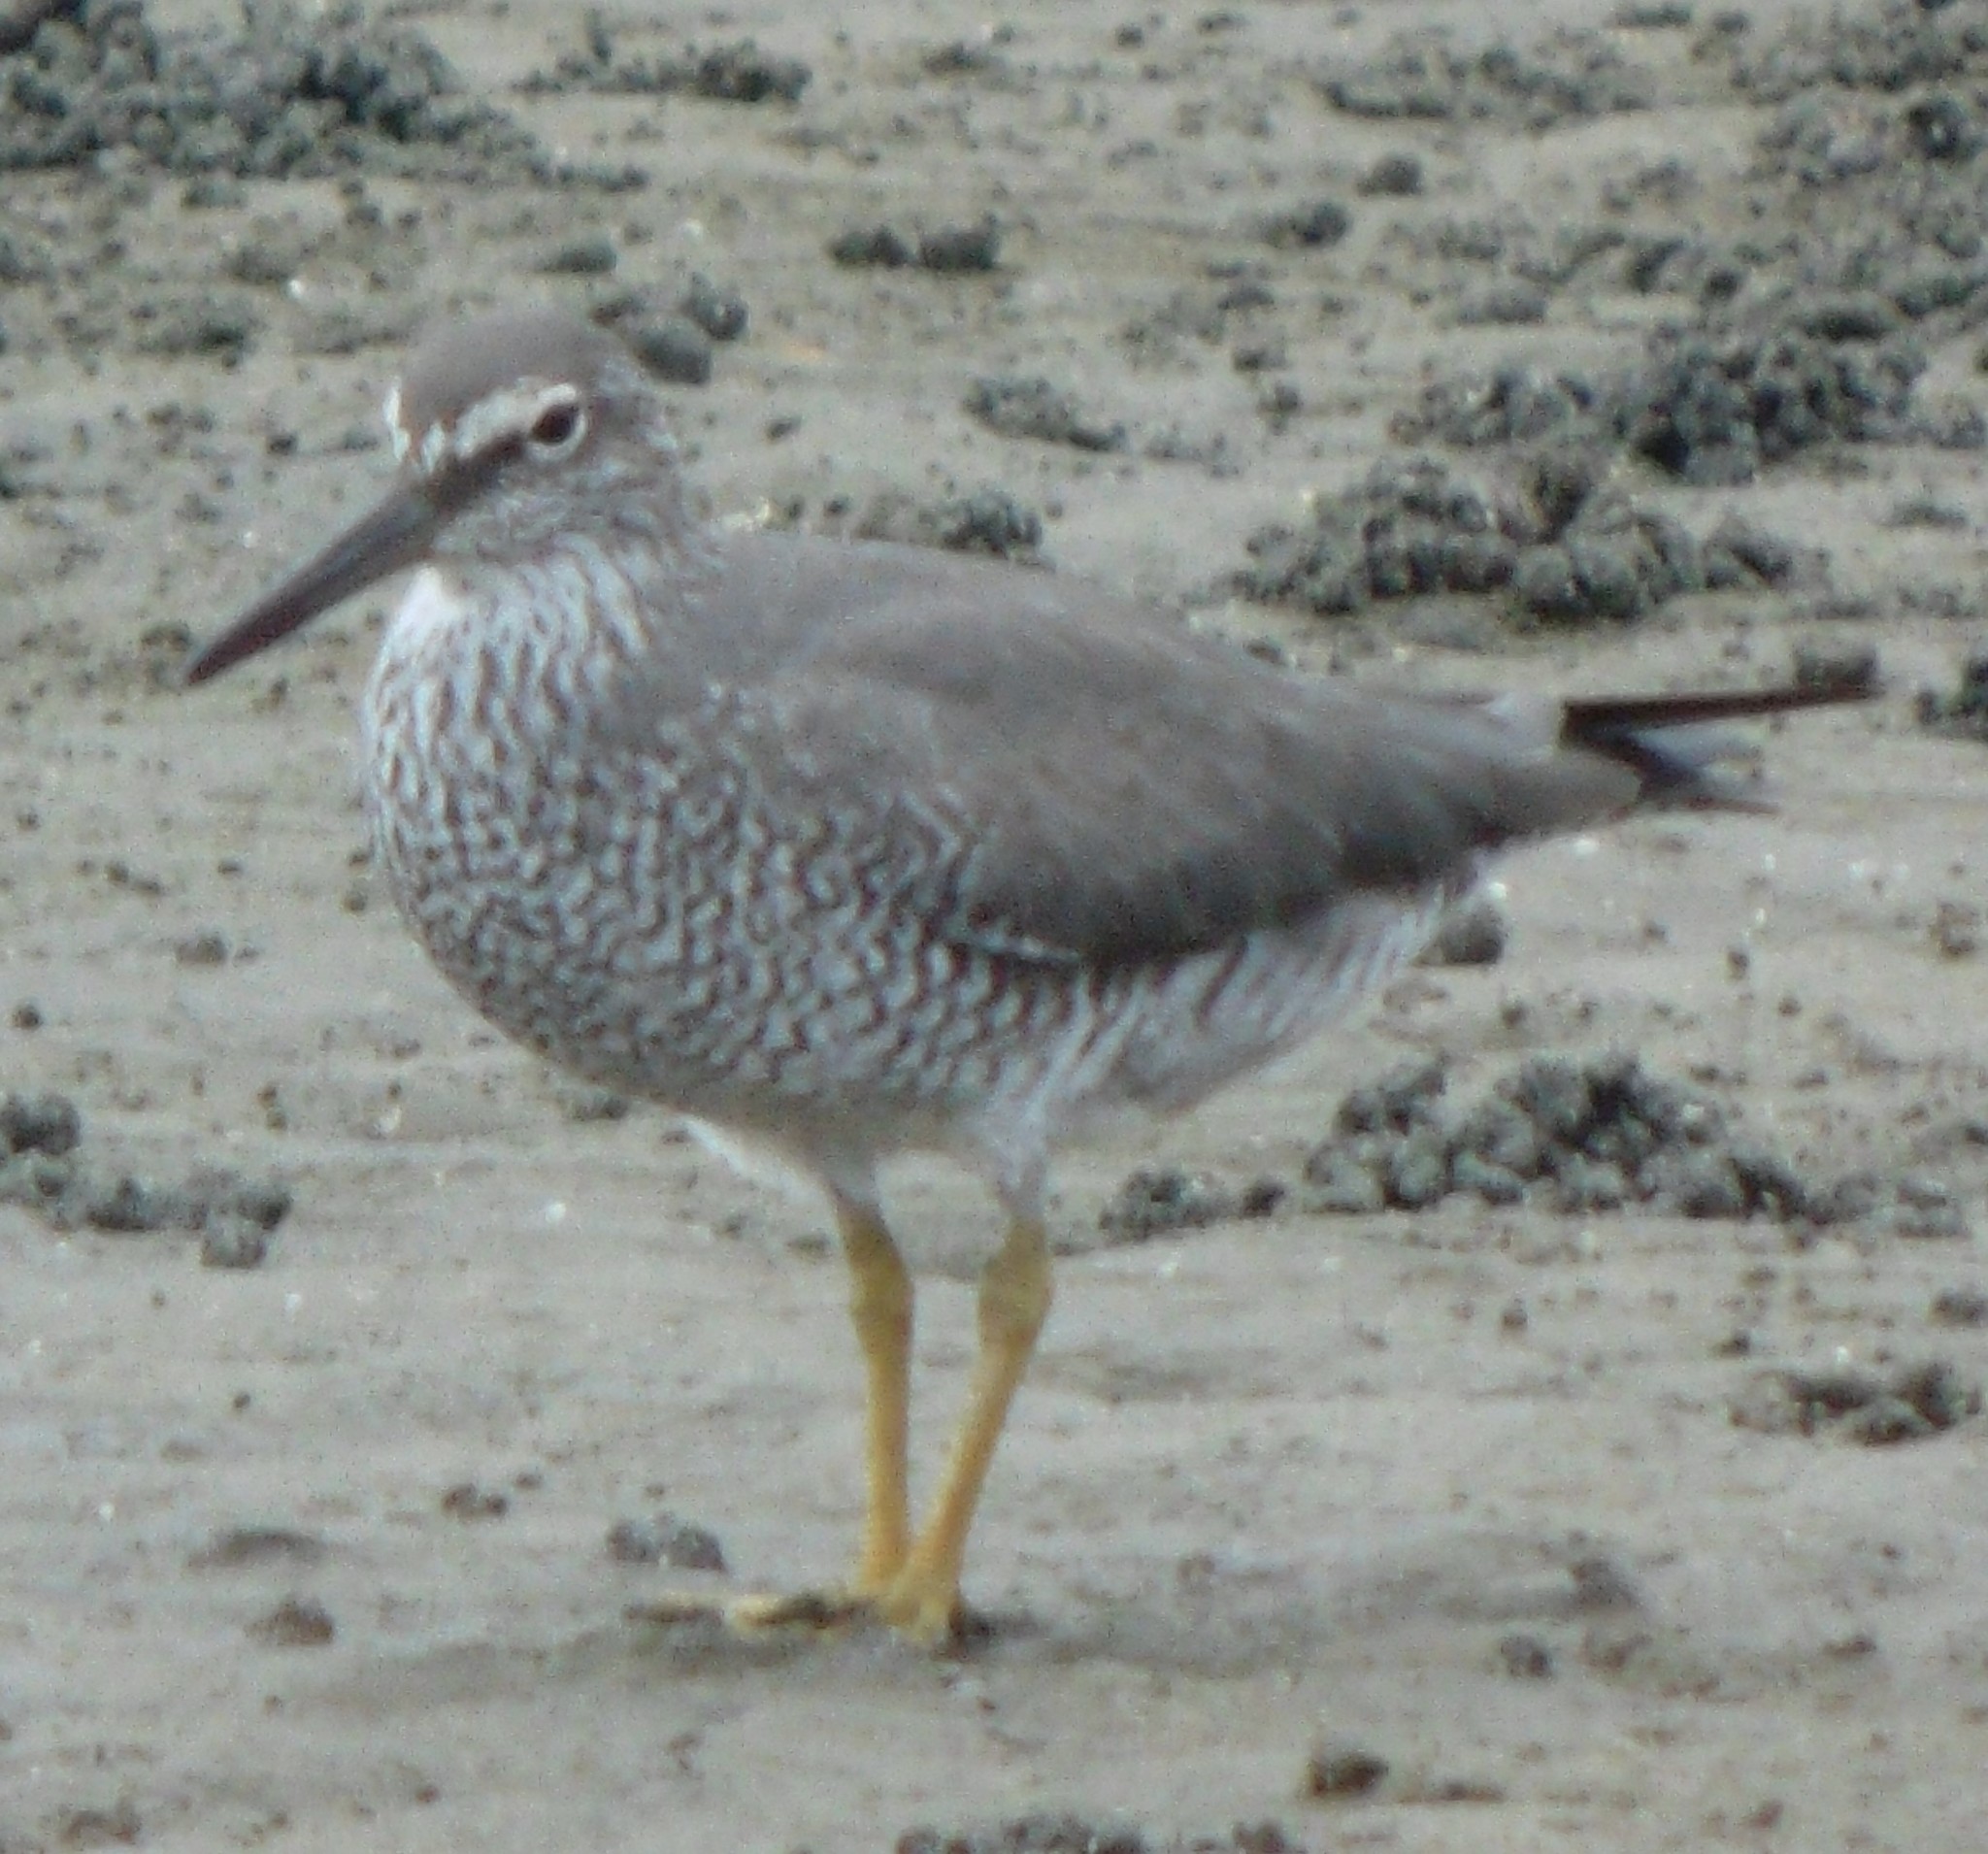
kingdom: Animalia
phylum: Chordata
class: Aves
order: Charadriiformes
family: Scolopacidae
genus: Tringa
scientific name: Tringa incana
